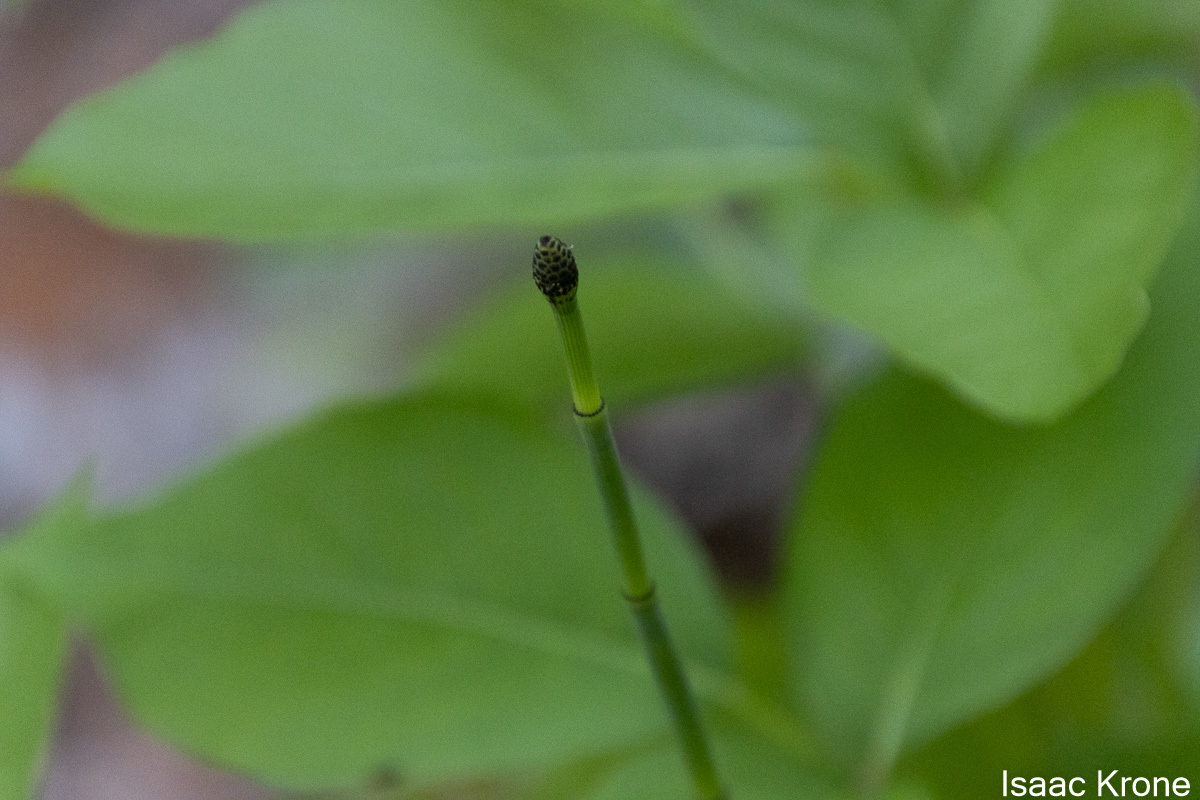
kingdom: Plantae
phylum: Tracheophyta
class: Polypodiopsida
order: Equisetales
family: Equisetaceae
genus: Equisetum
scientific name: Equisetum laevigatum
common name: Smooth scouring-rush
